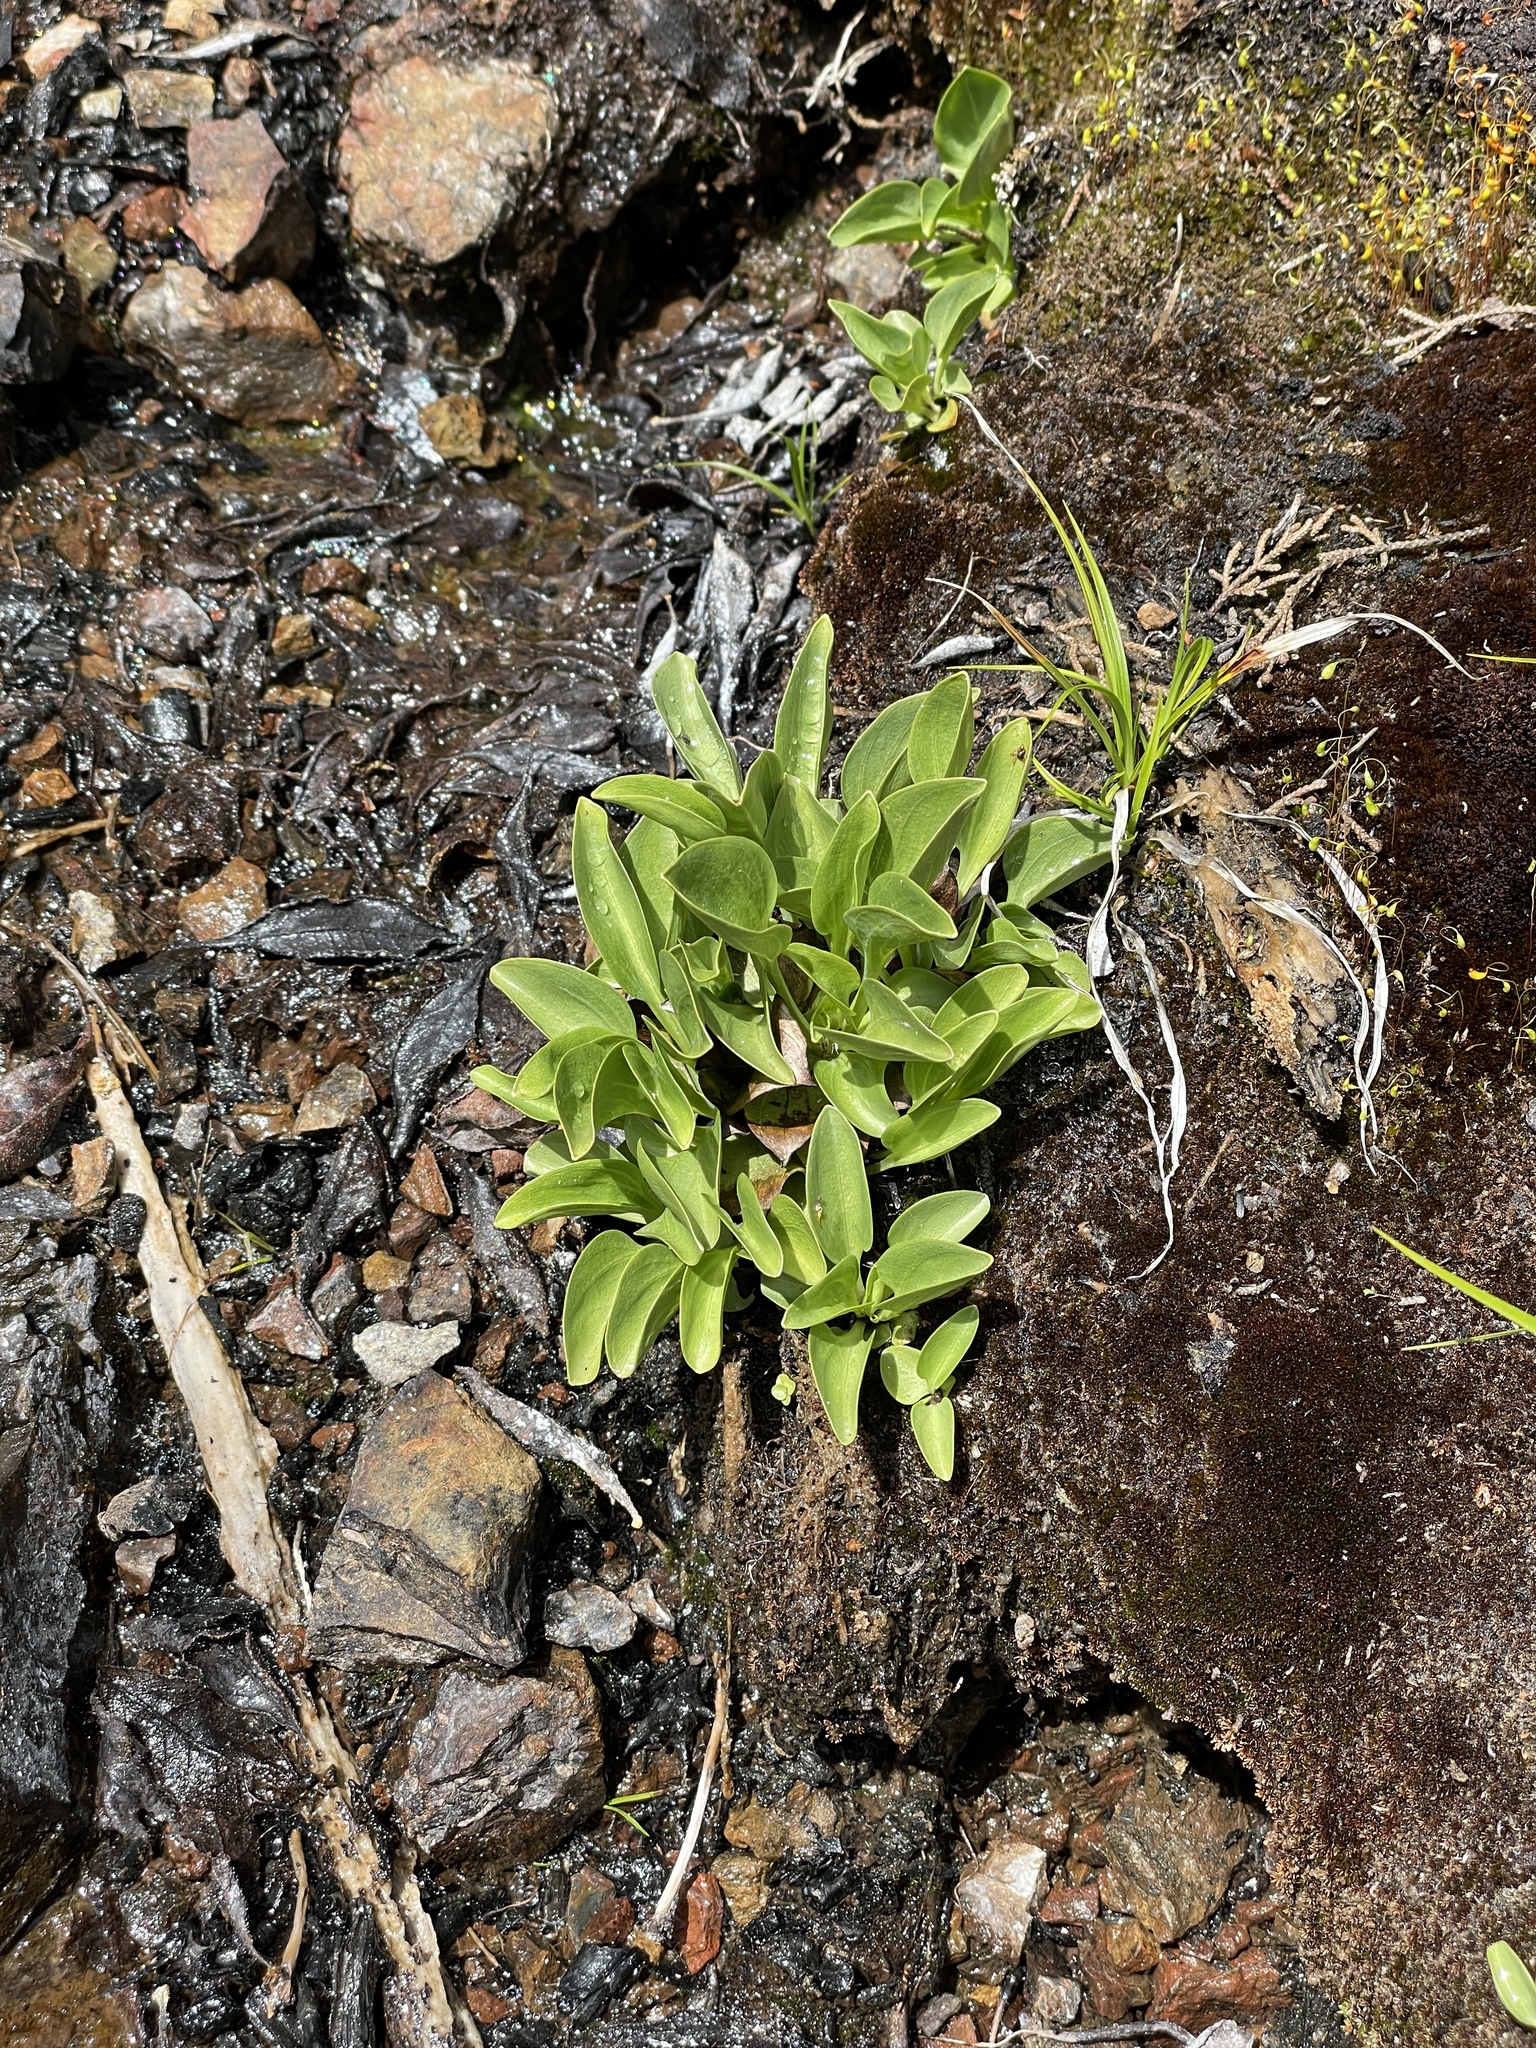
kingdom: Plantae
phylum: Tracheophyta
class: Magnoliopsida
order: Celastrales
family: Parnassiaceae
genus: Parnassia
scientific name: Parnassia palustris
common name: Grass-of-parnassus
